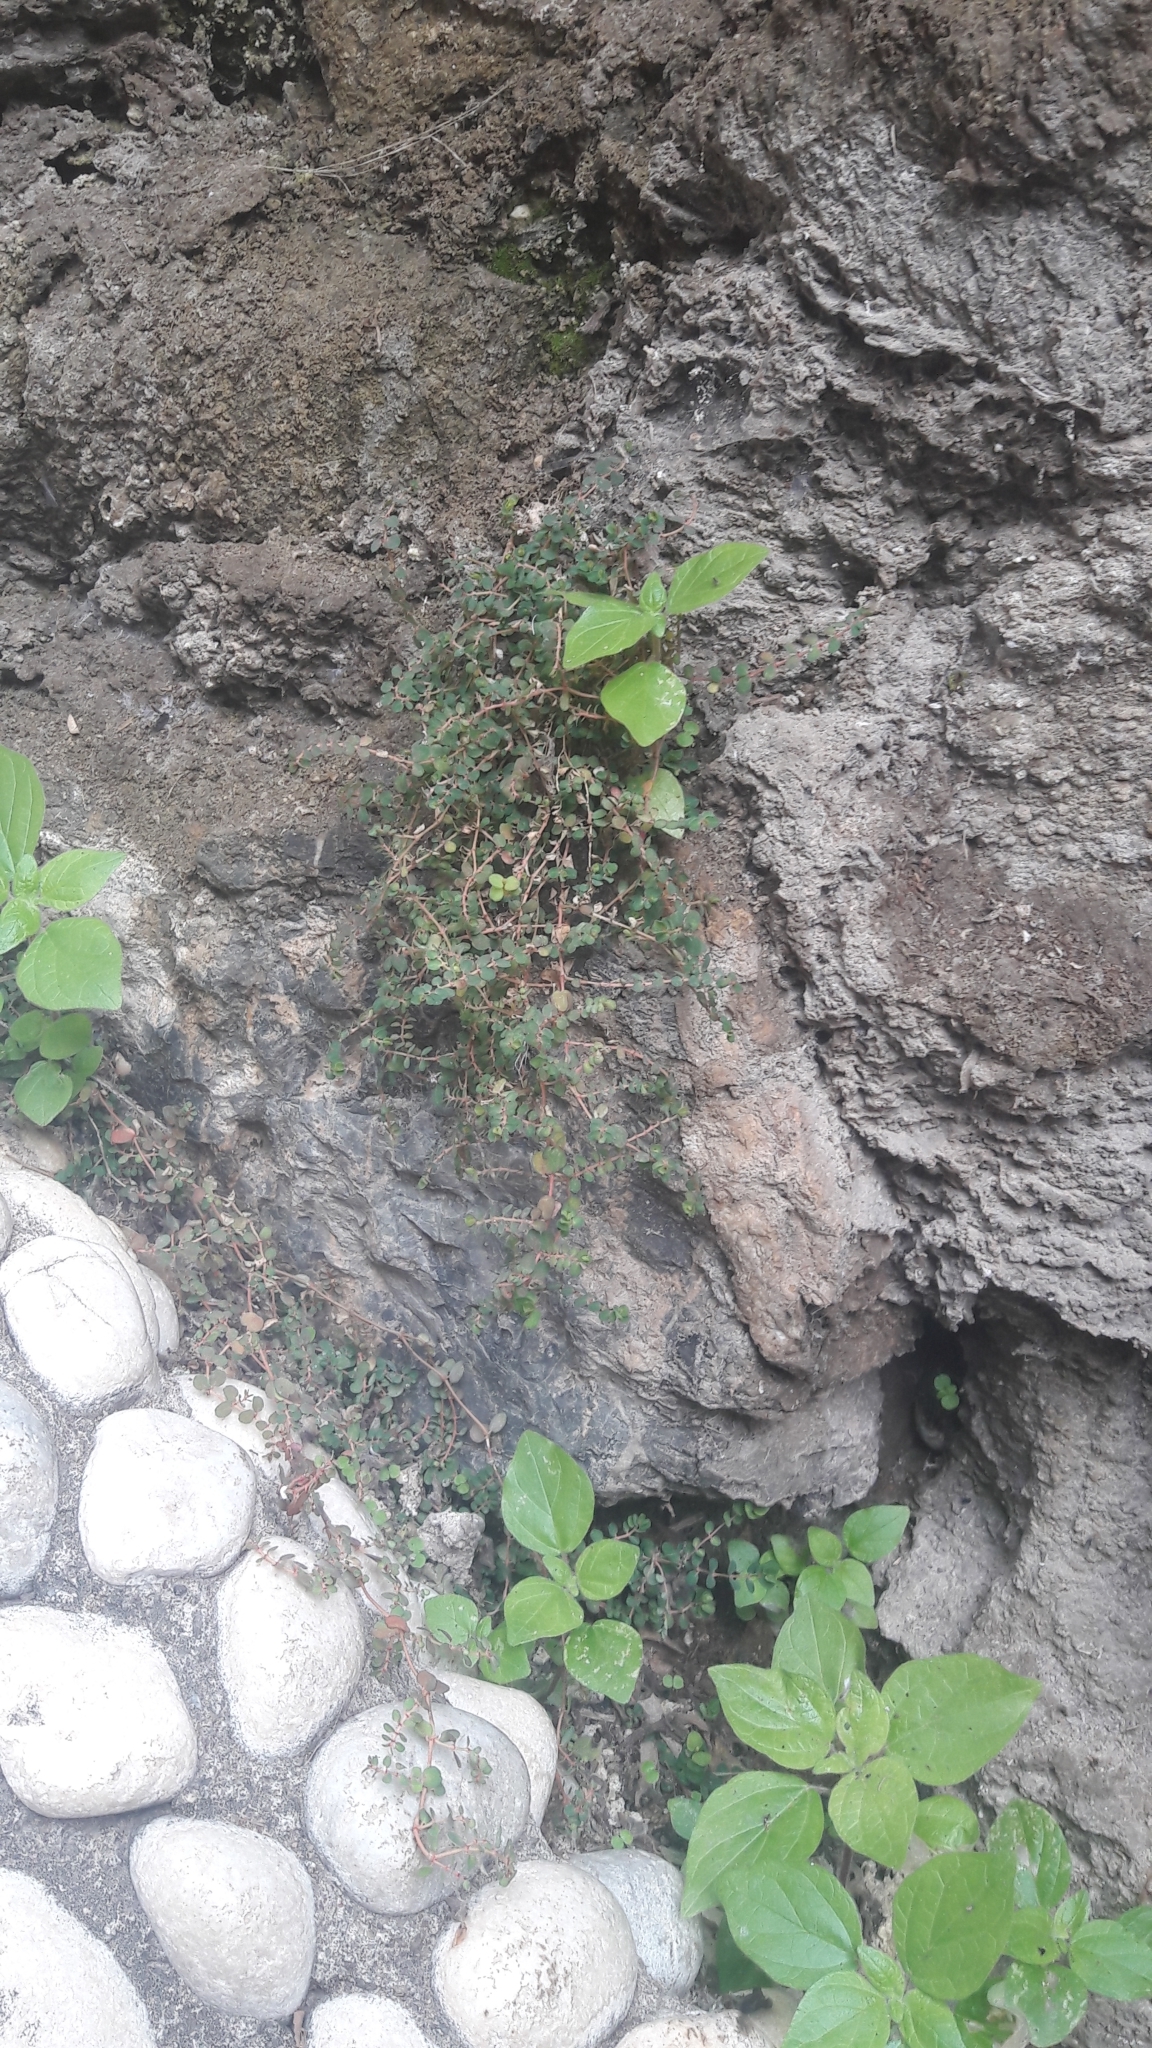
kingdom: Plantae
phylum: Tracheophyta
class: Magnoliopsida
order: Malpighiales
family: Euphorbiaceae
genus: Euphorbia
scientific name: Euphorbia serpens
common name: Matted sandmat
